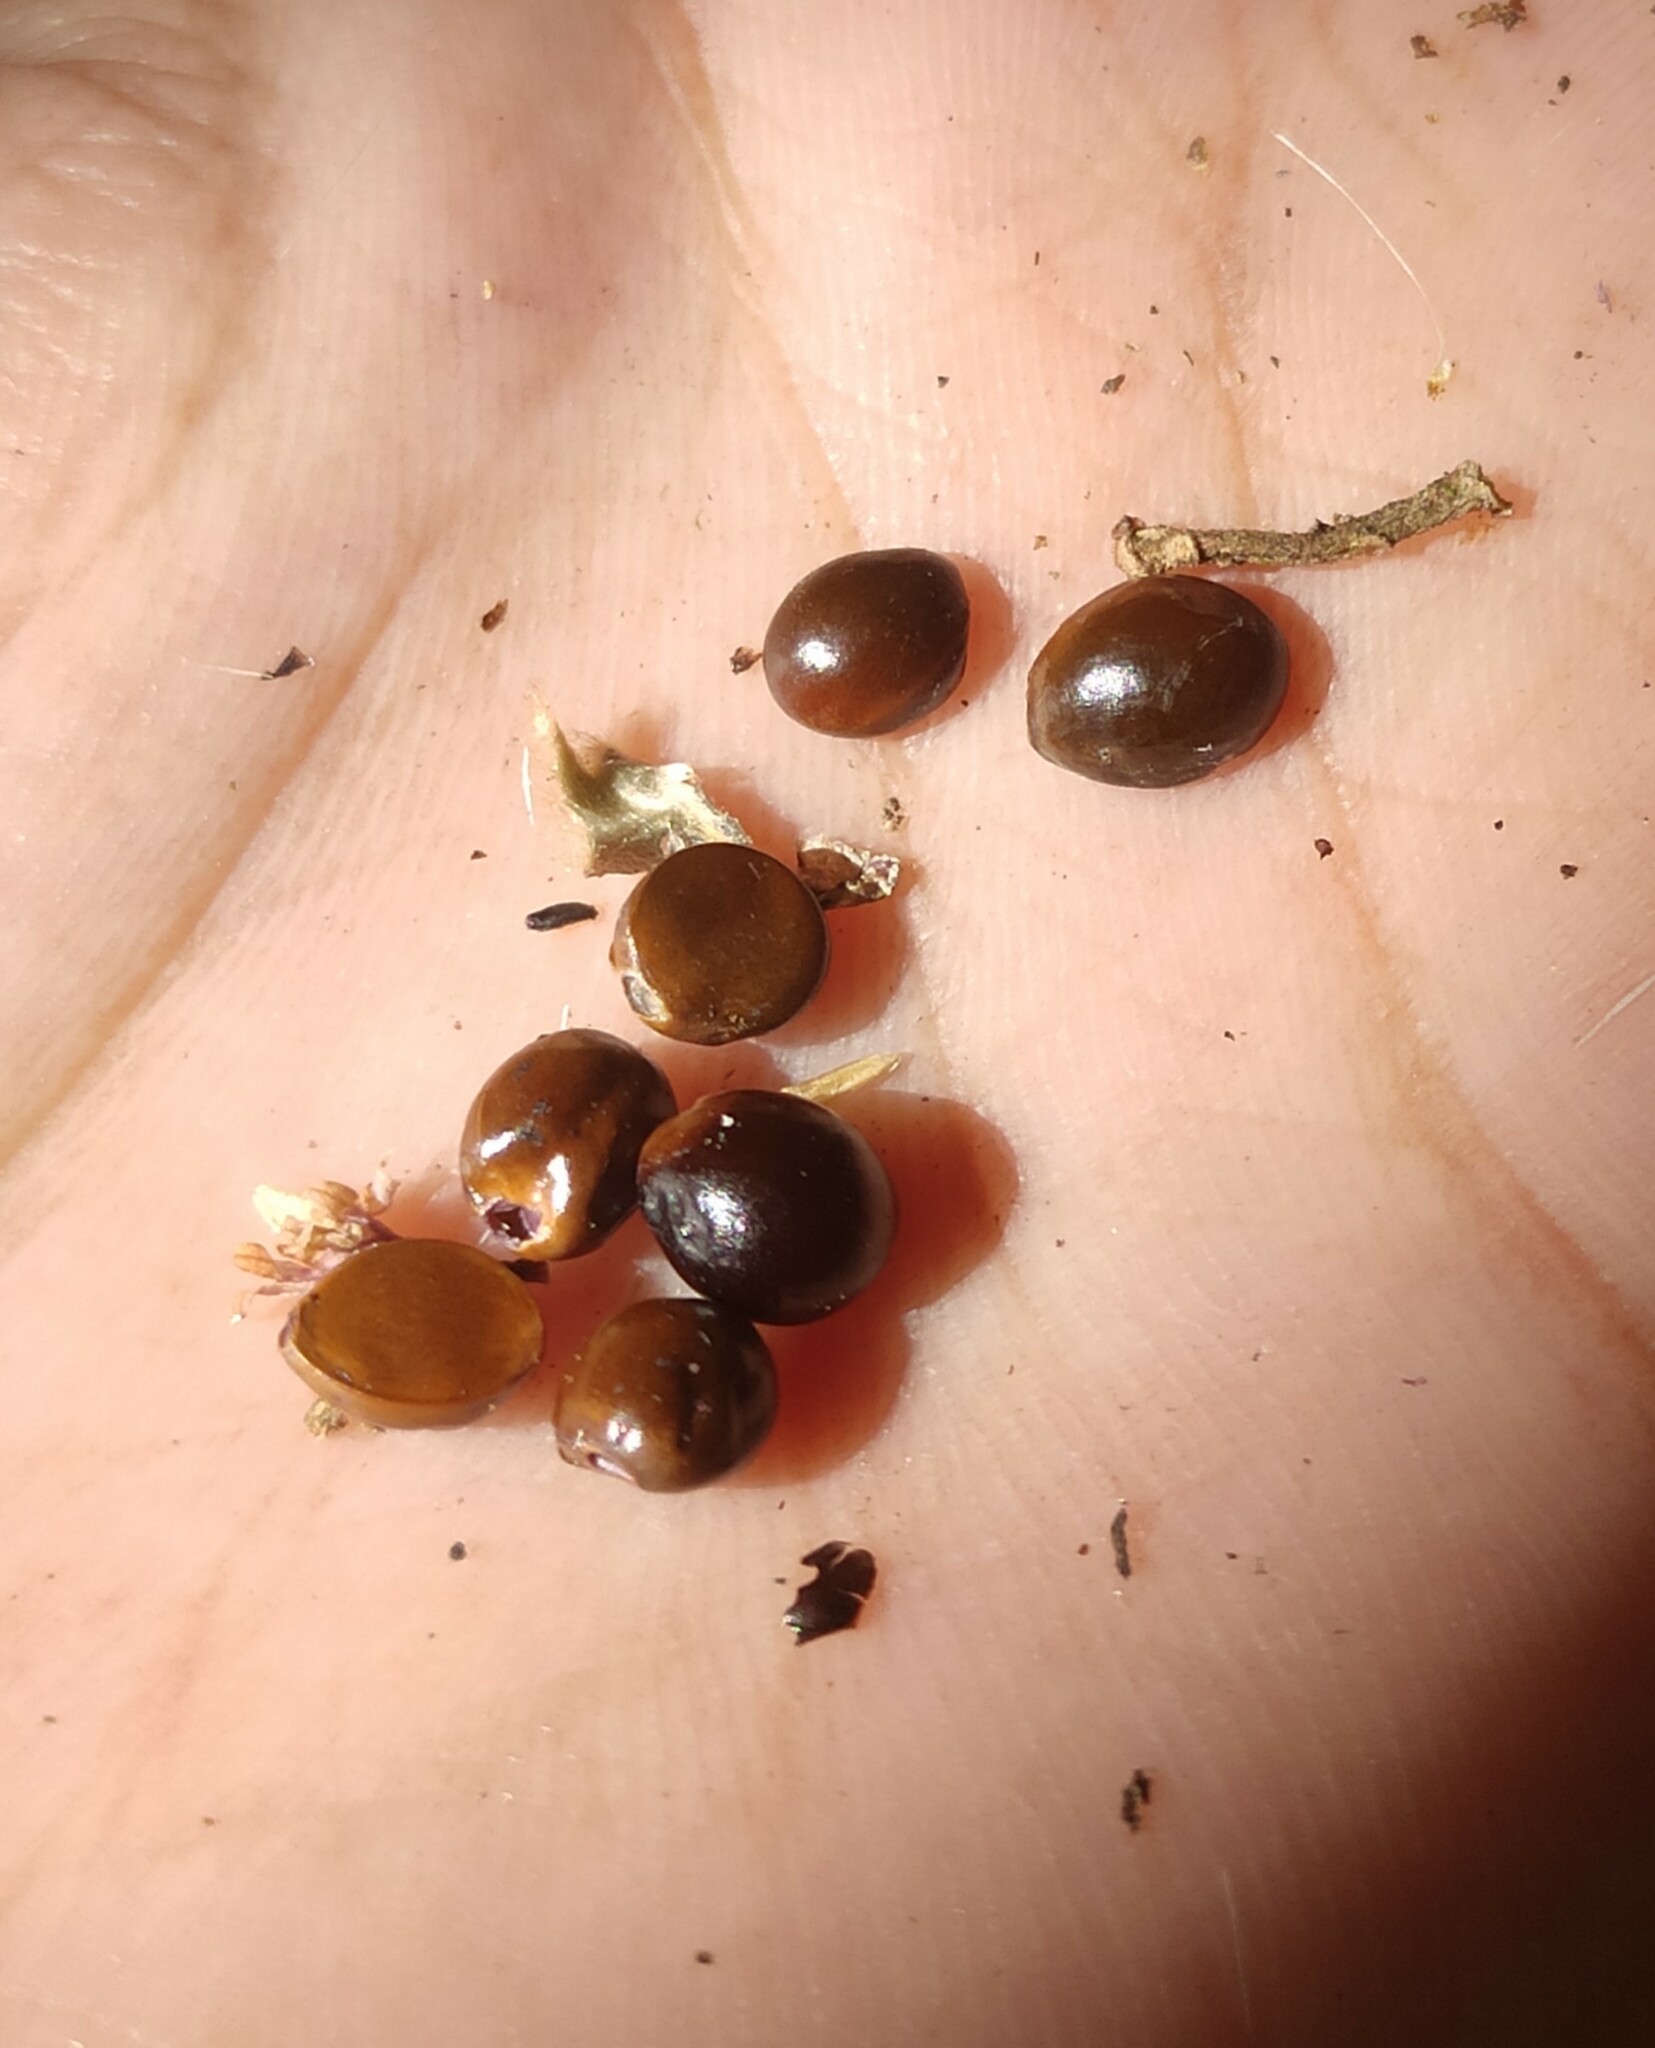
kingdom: Plantae
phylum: Tracheophyta
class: Magnoliopsida
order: Buxales
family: Buxaceae
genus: Sarcococca
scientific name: Sarcococca coriacea
